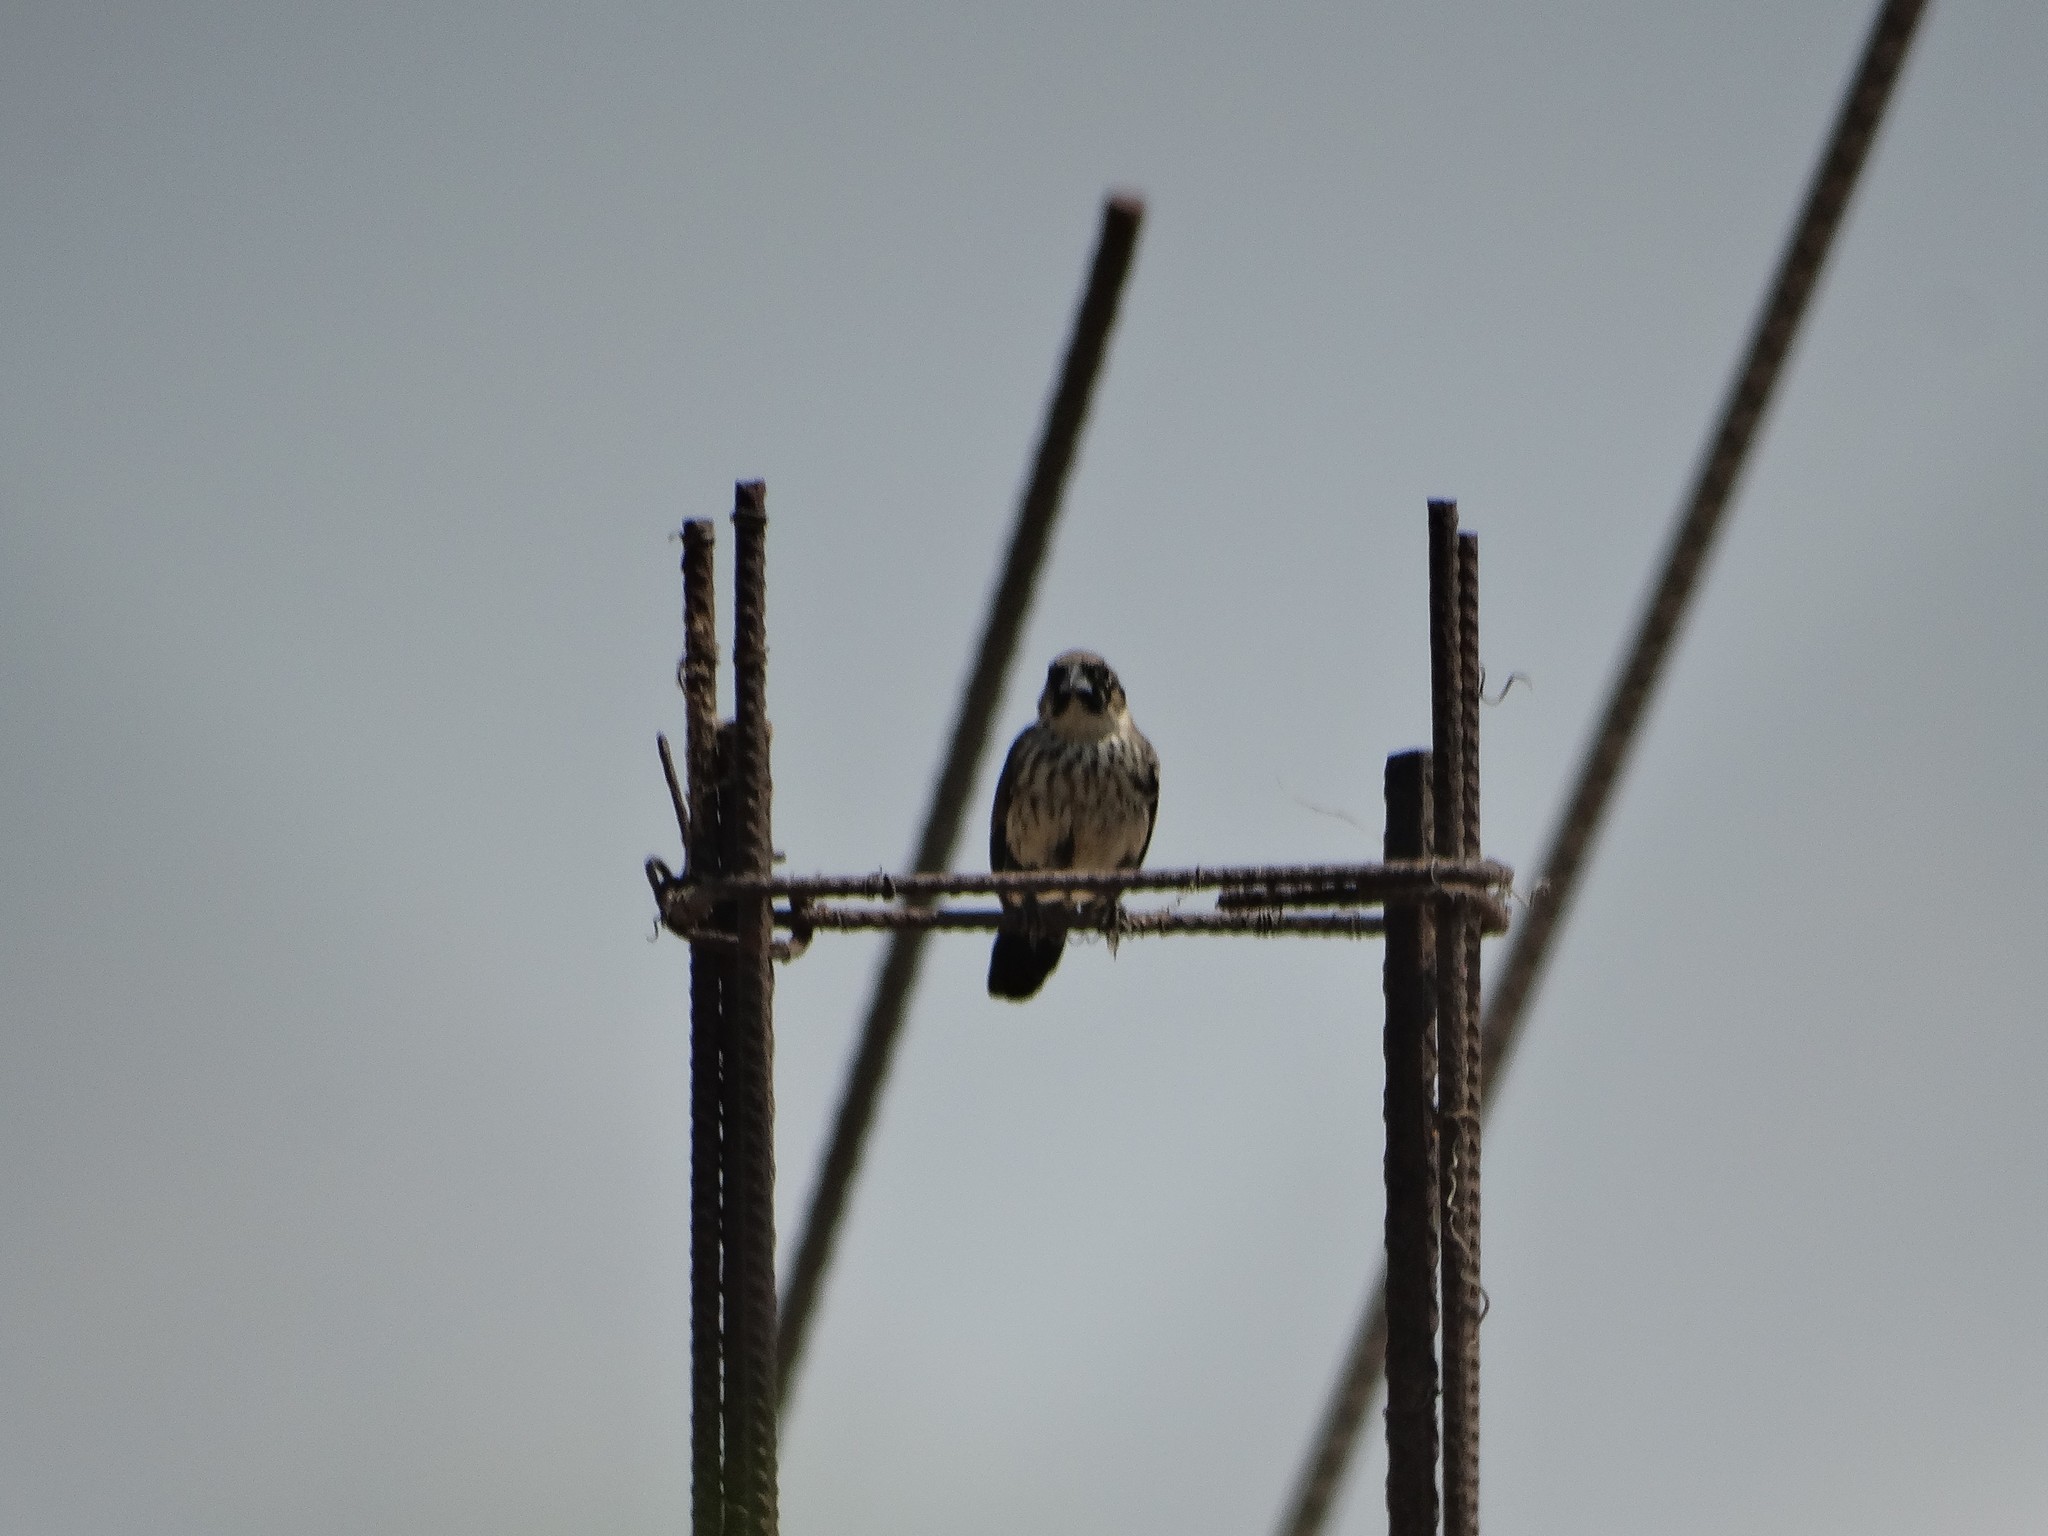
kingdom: Animalia
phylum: Chordata
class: Aves
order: Passeriformes
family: Thraupidae
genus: Volatinia
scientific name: Volatinia jacarina
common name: Blue-black grassquit
